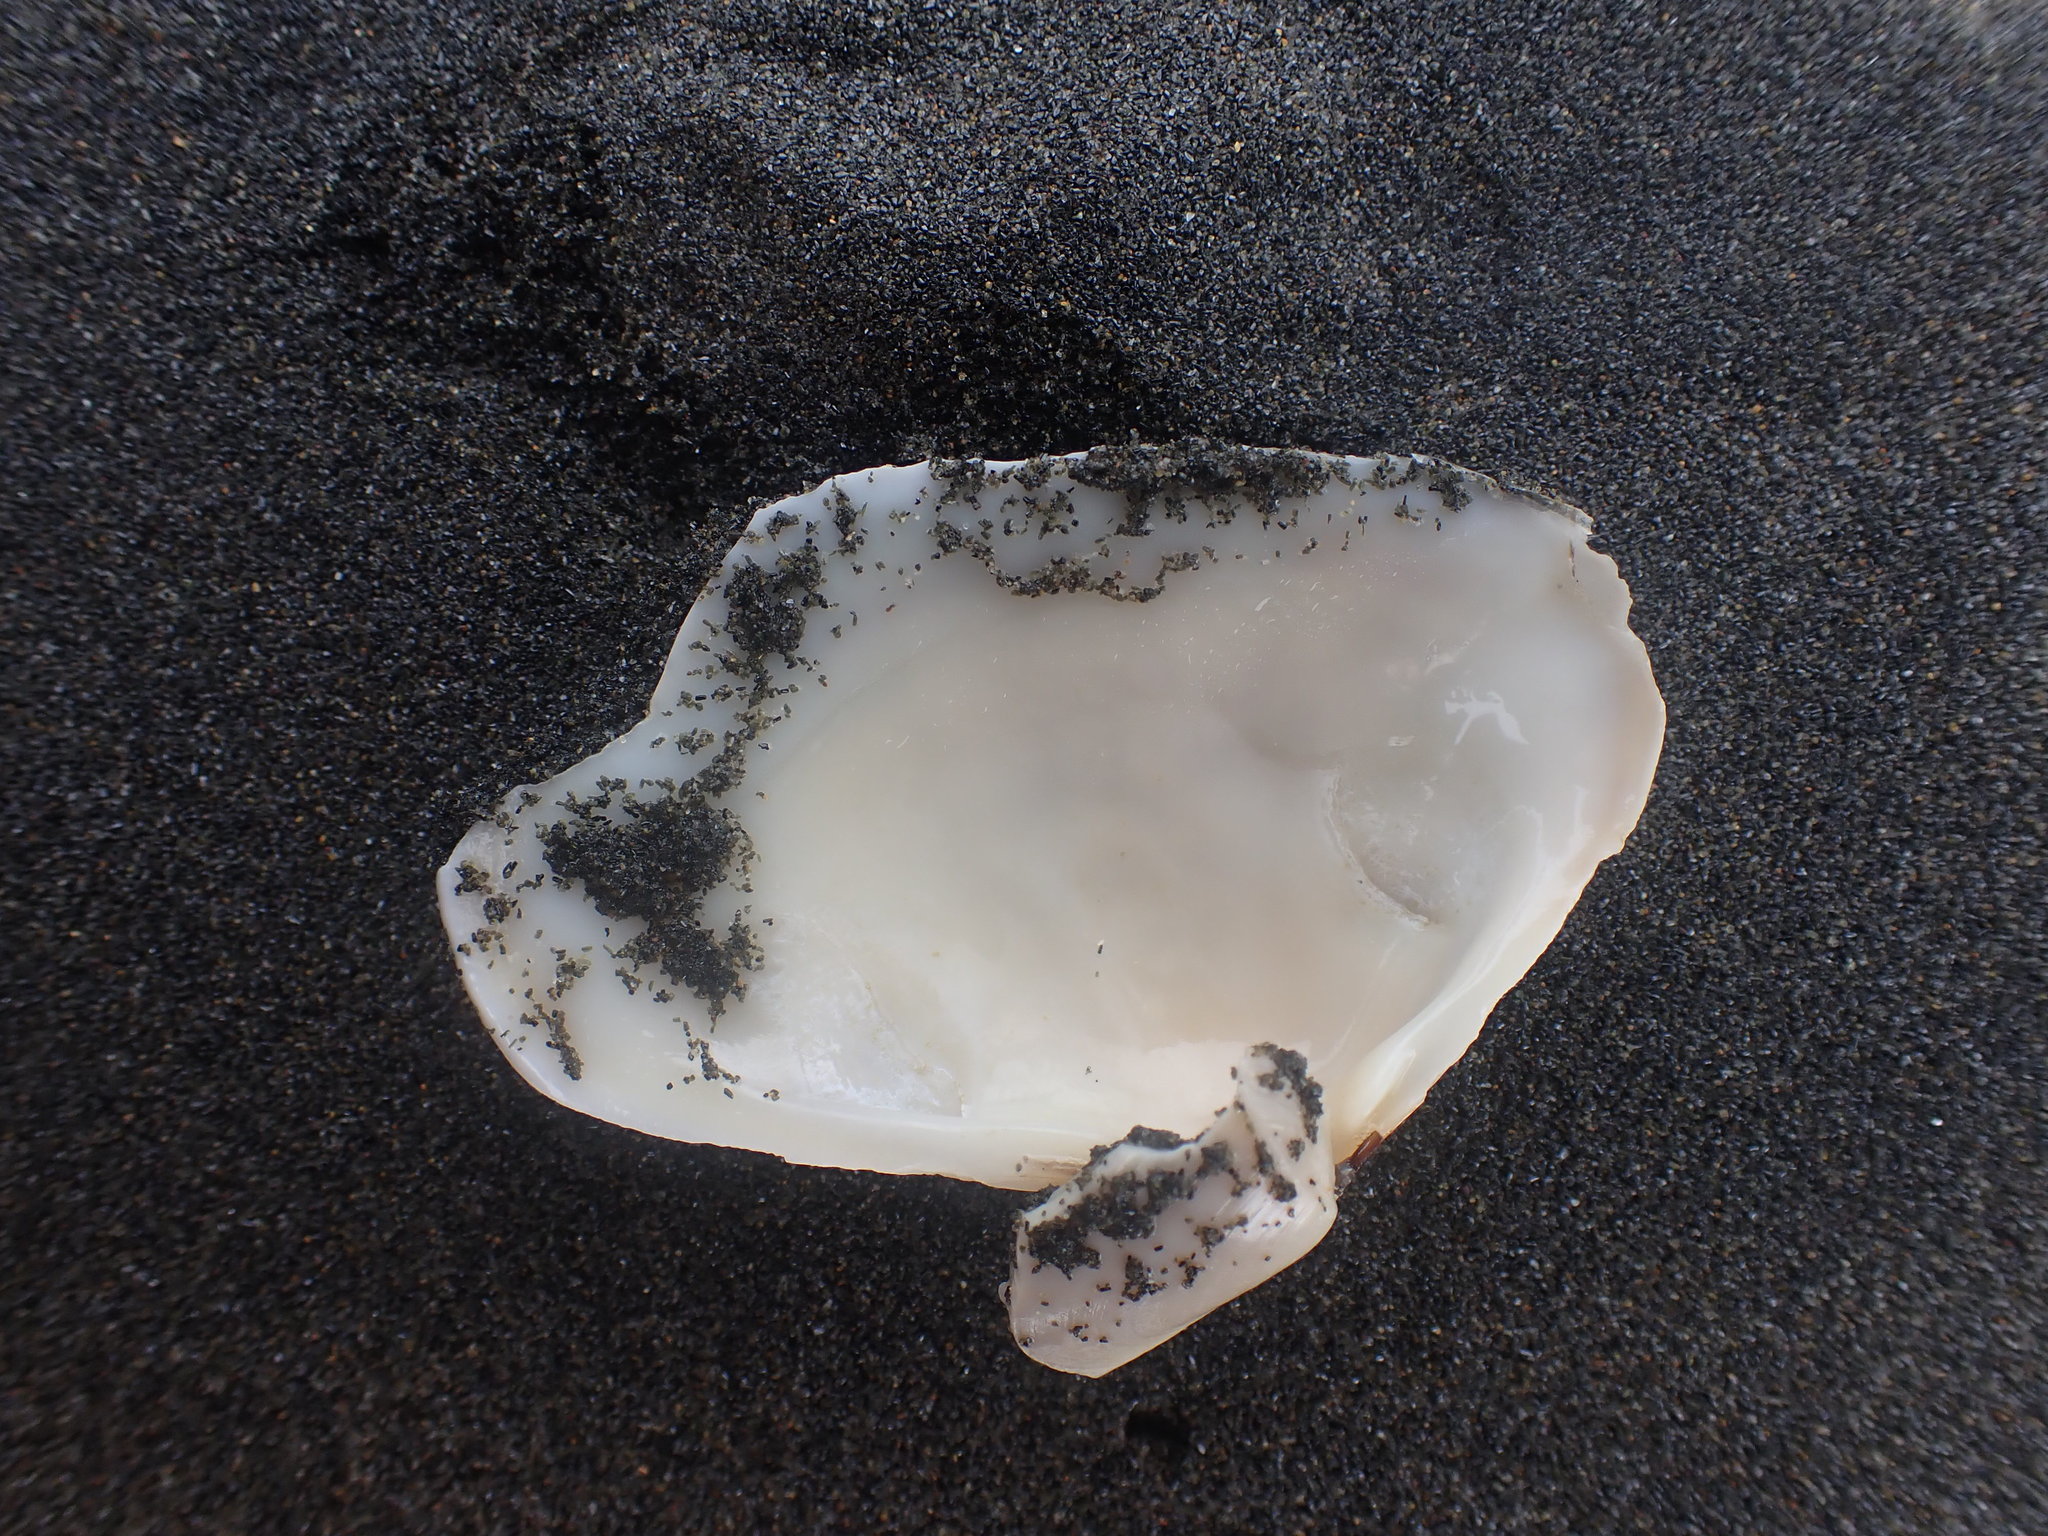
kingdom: Animalia
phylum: Mollusca
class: Bivalvia
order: Venerida
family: Mesodesmatidae
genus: Paphies
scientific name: Paphies subtriangulata
